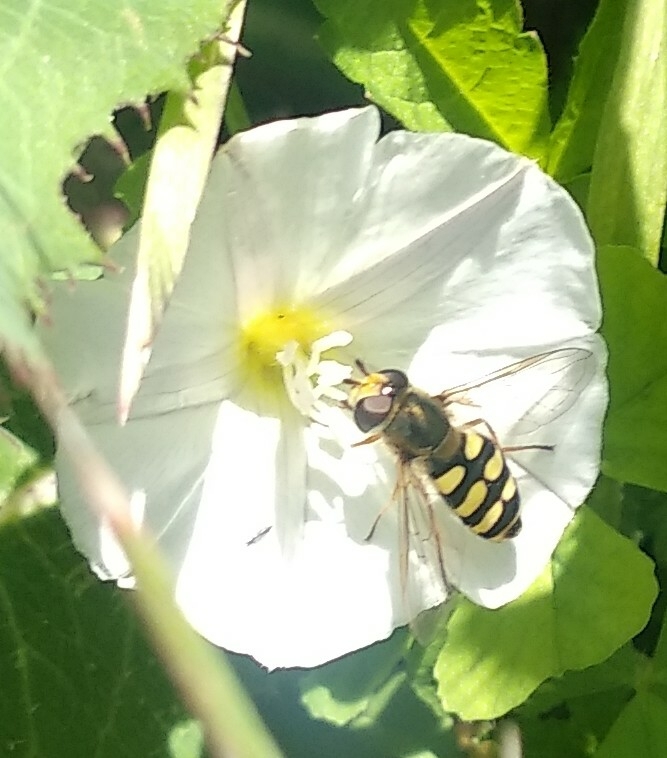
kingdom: Animalia
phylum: Arthropoda
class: Insecta
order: Diptera
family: Syrphidae
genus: Eupeodes
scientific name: Eupeodes corollae
